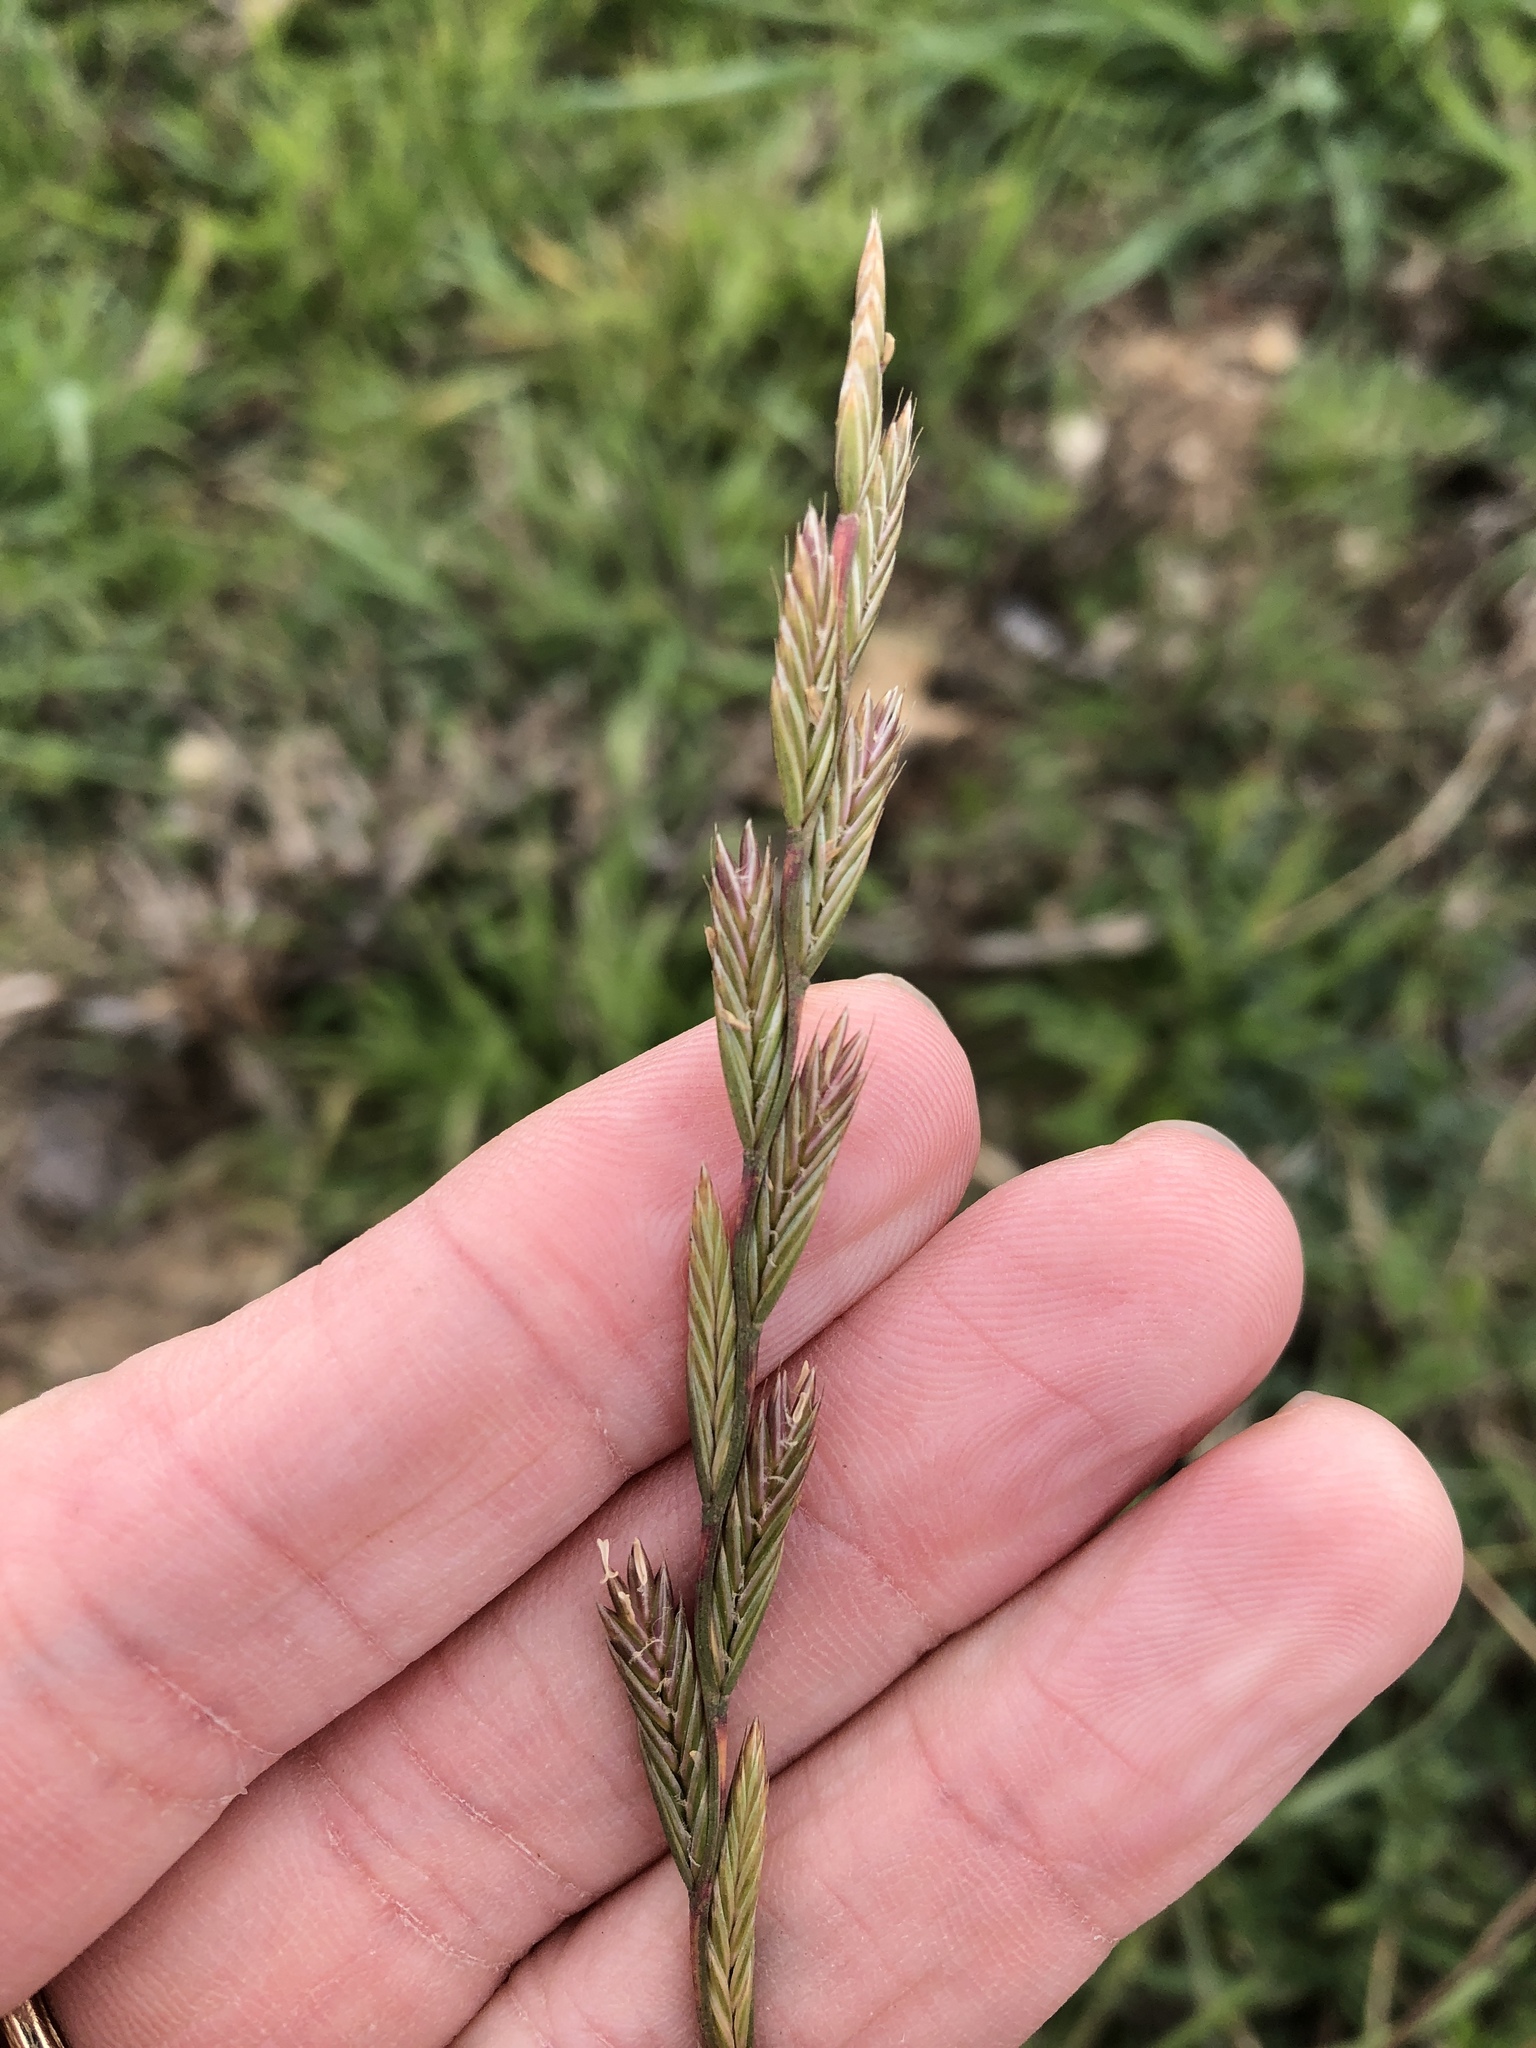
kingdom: Plantae
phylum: Tracheophyta
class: Liliopsida
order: Poales
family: Poaceae
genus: Lolium
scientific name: Lolium perenne
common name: Perennial ryegrass
